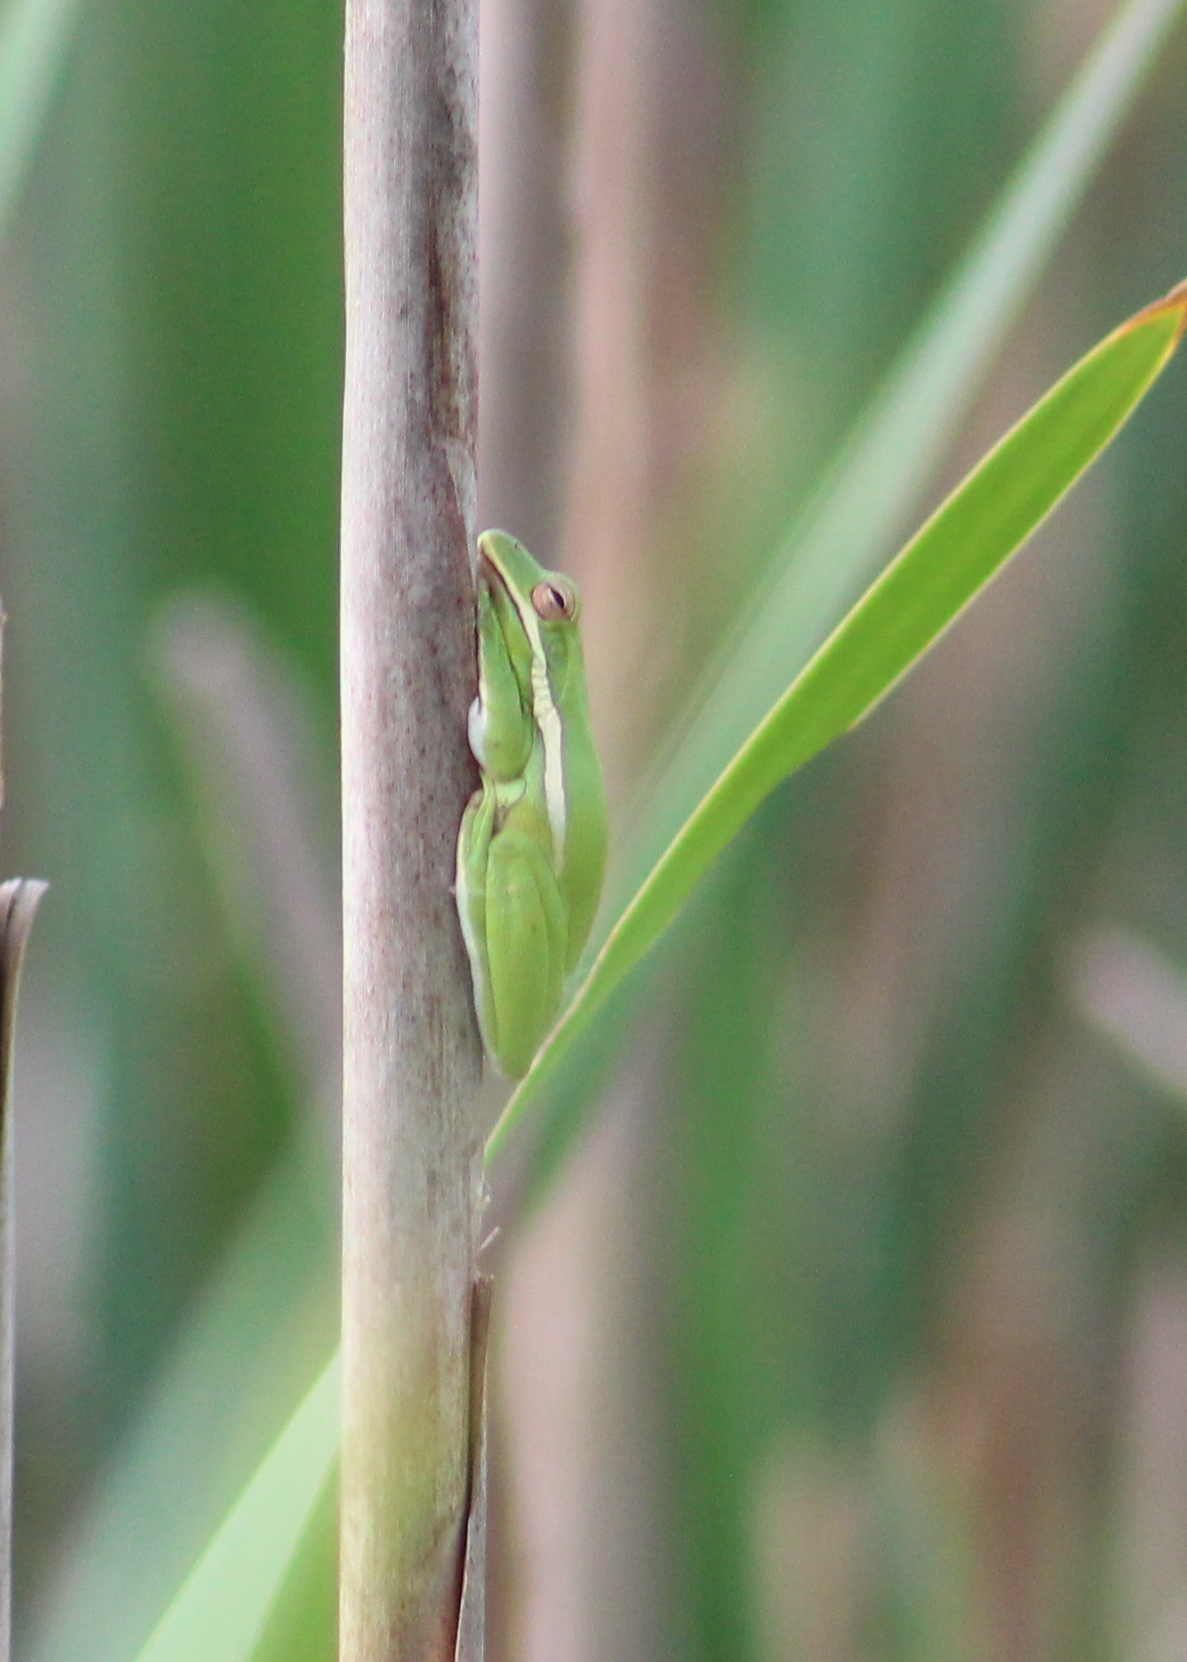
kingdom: Animalia
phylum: Chordata
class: Amphibia
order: Anura
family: Hylidae
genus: Dryophytes
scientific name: Dryophytes cinereus
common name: Green treefrog
